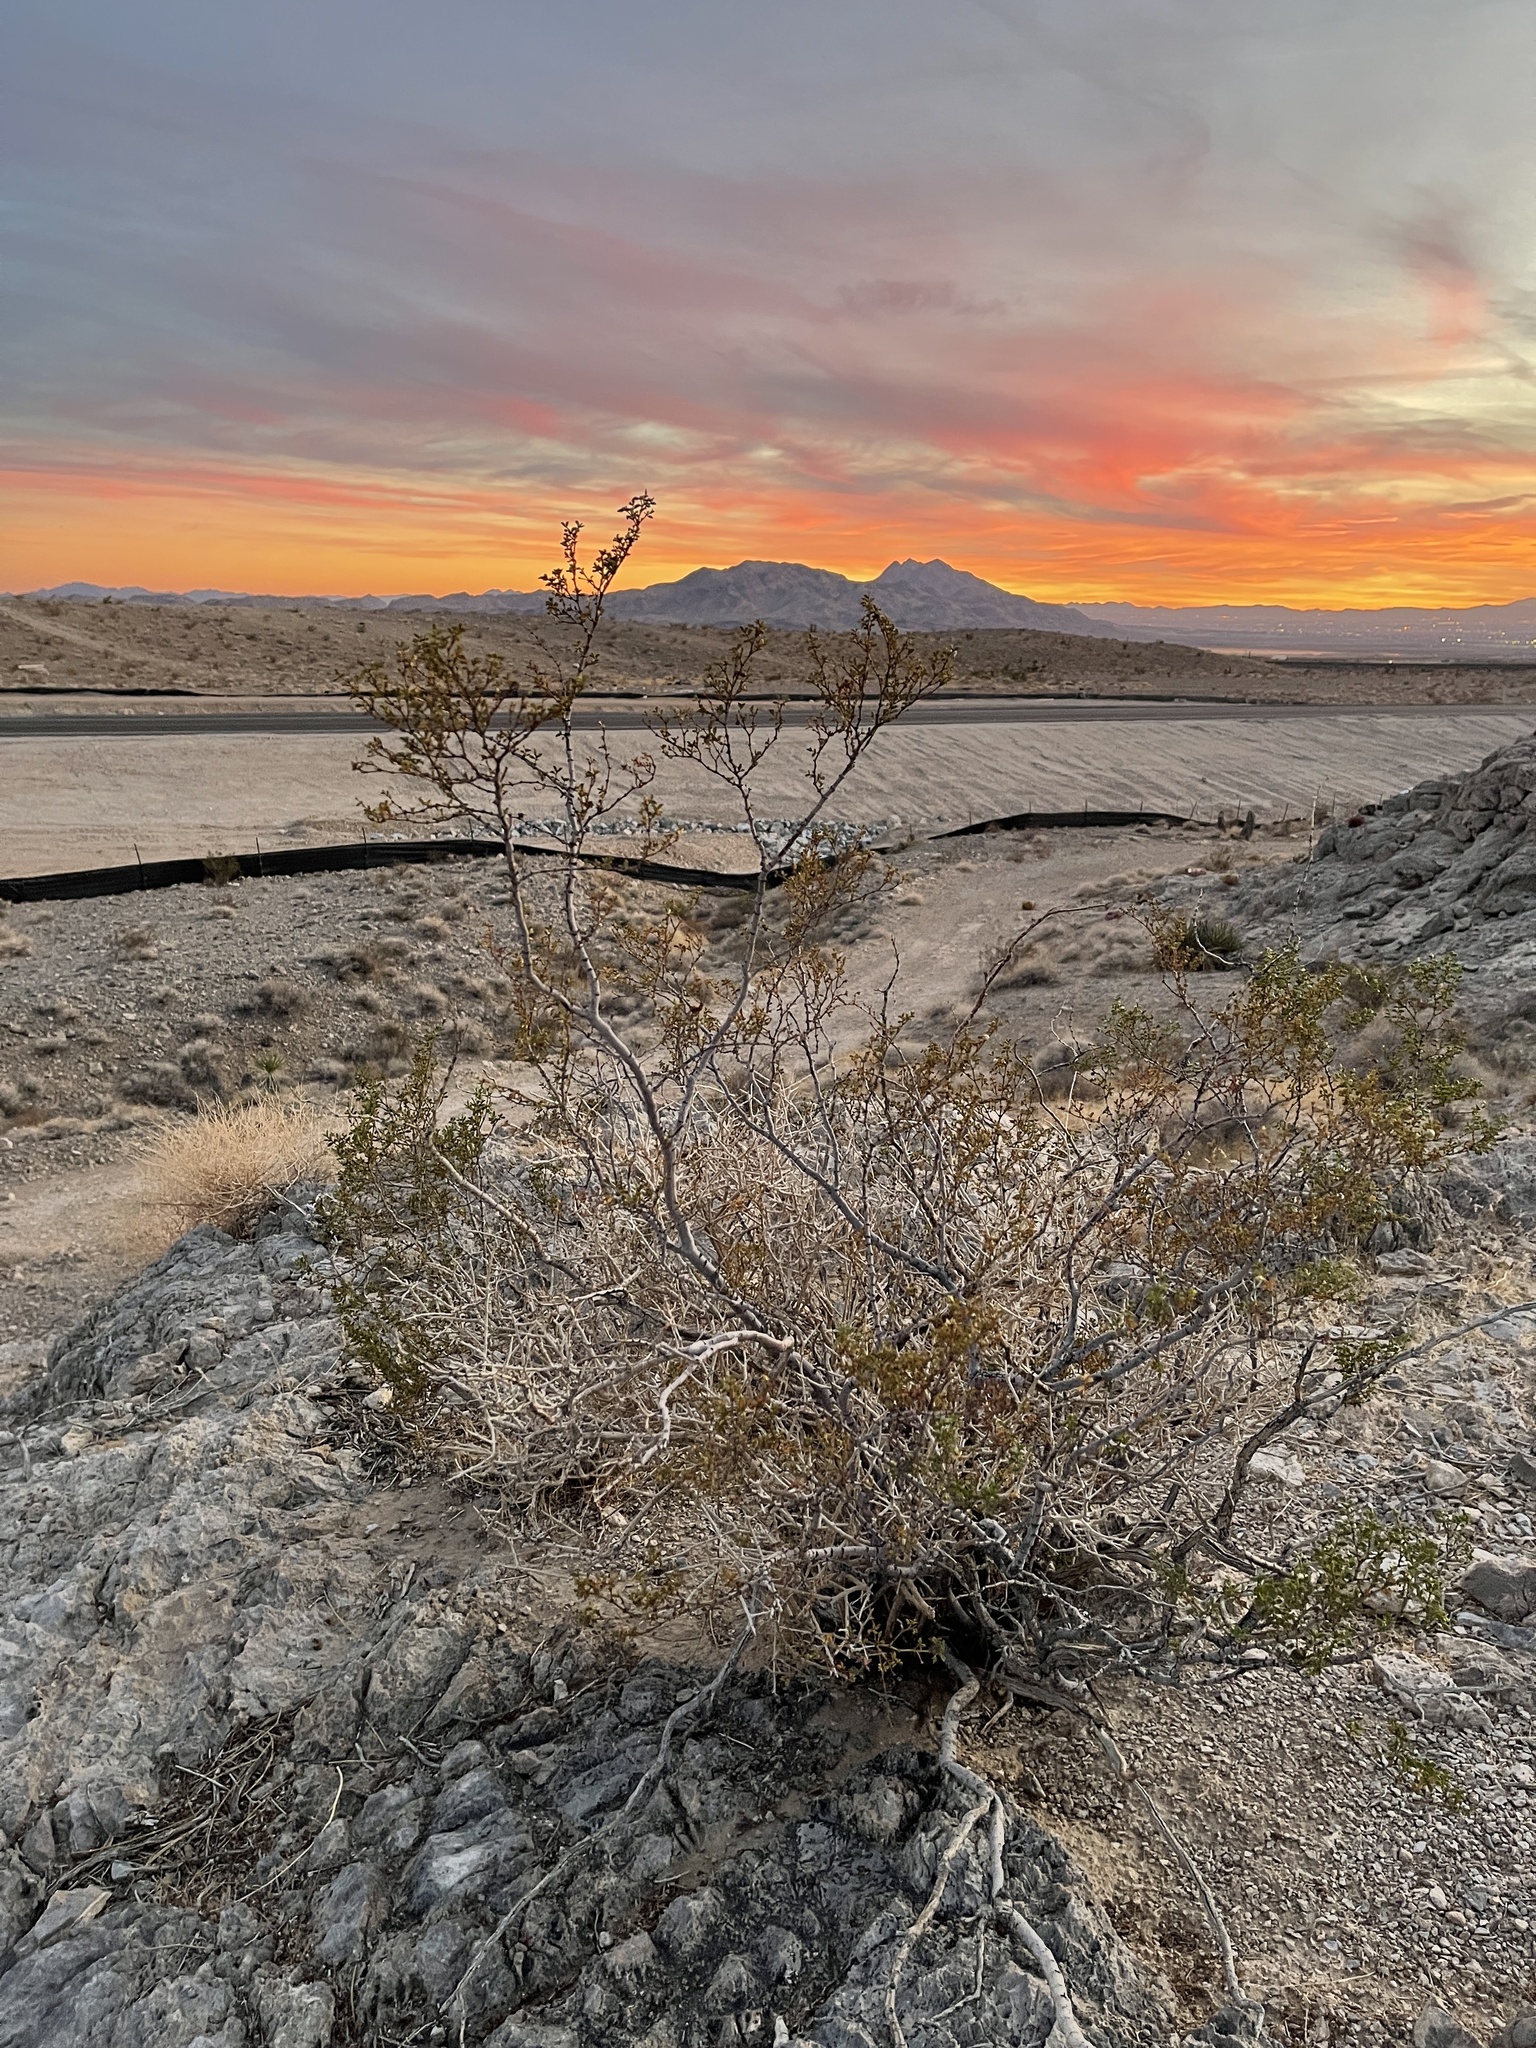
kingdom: Plantae
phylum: Tracheophyta
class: Magnoliopsida
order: Zygophyllales
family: Zygophyllaceae
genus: Larrea
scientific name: Larrea tridentata
